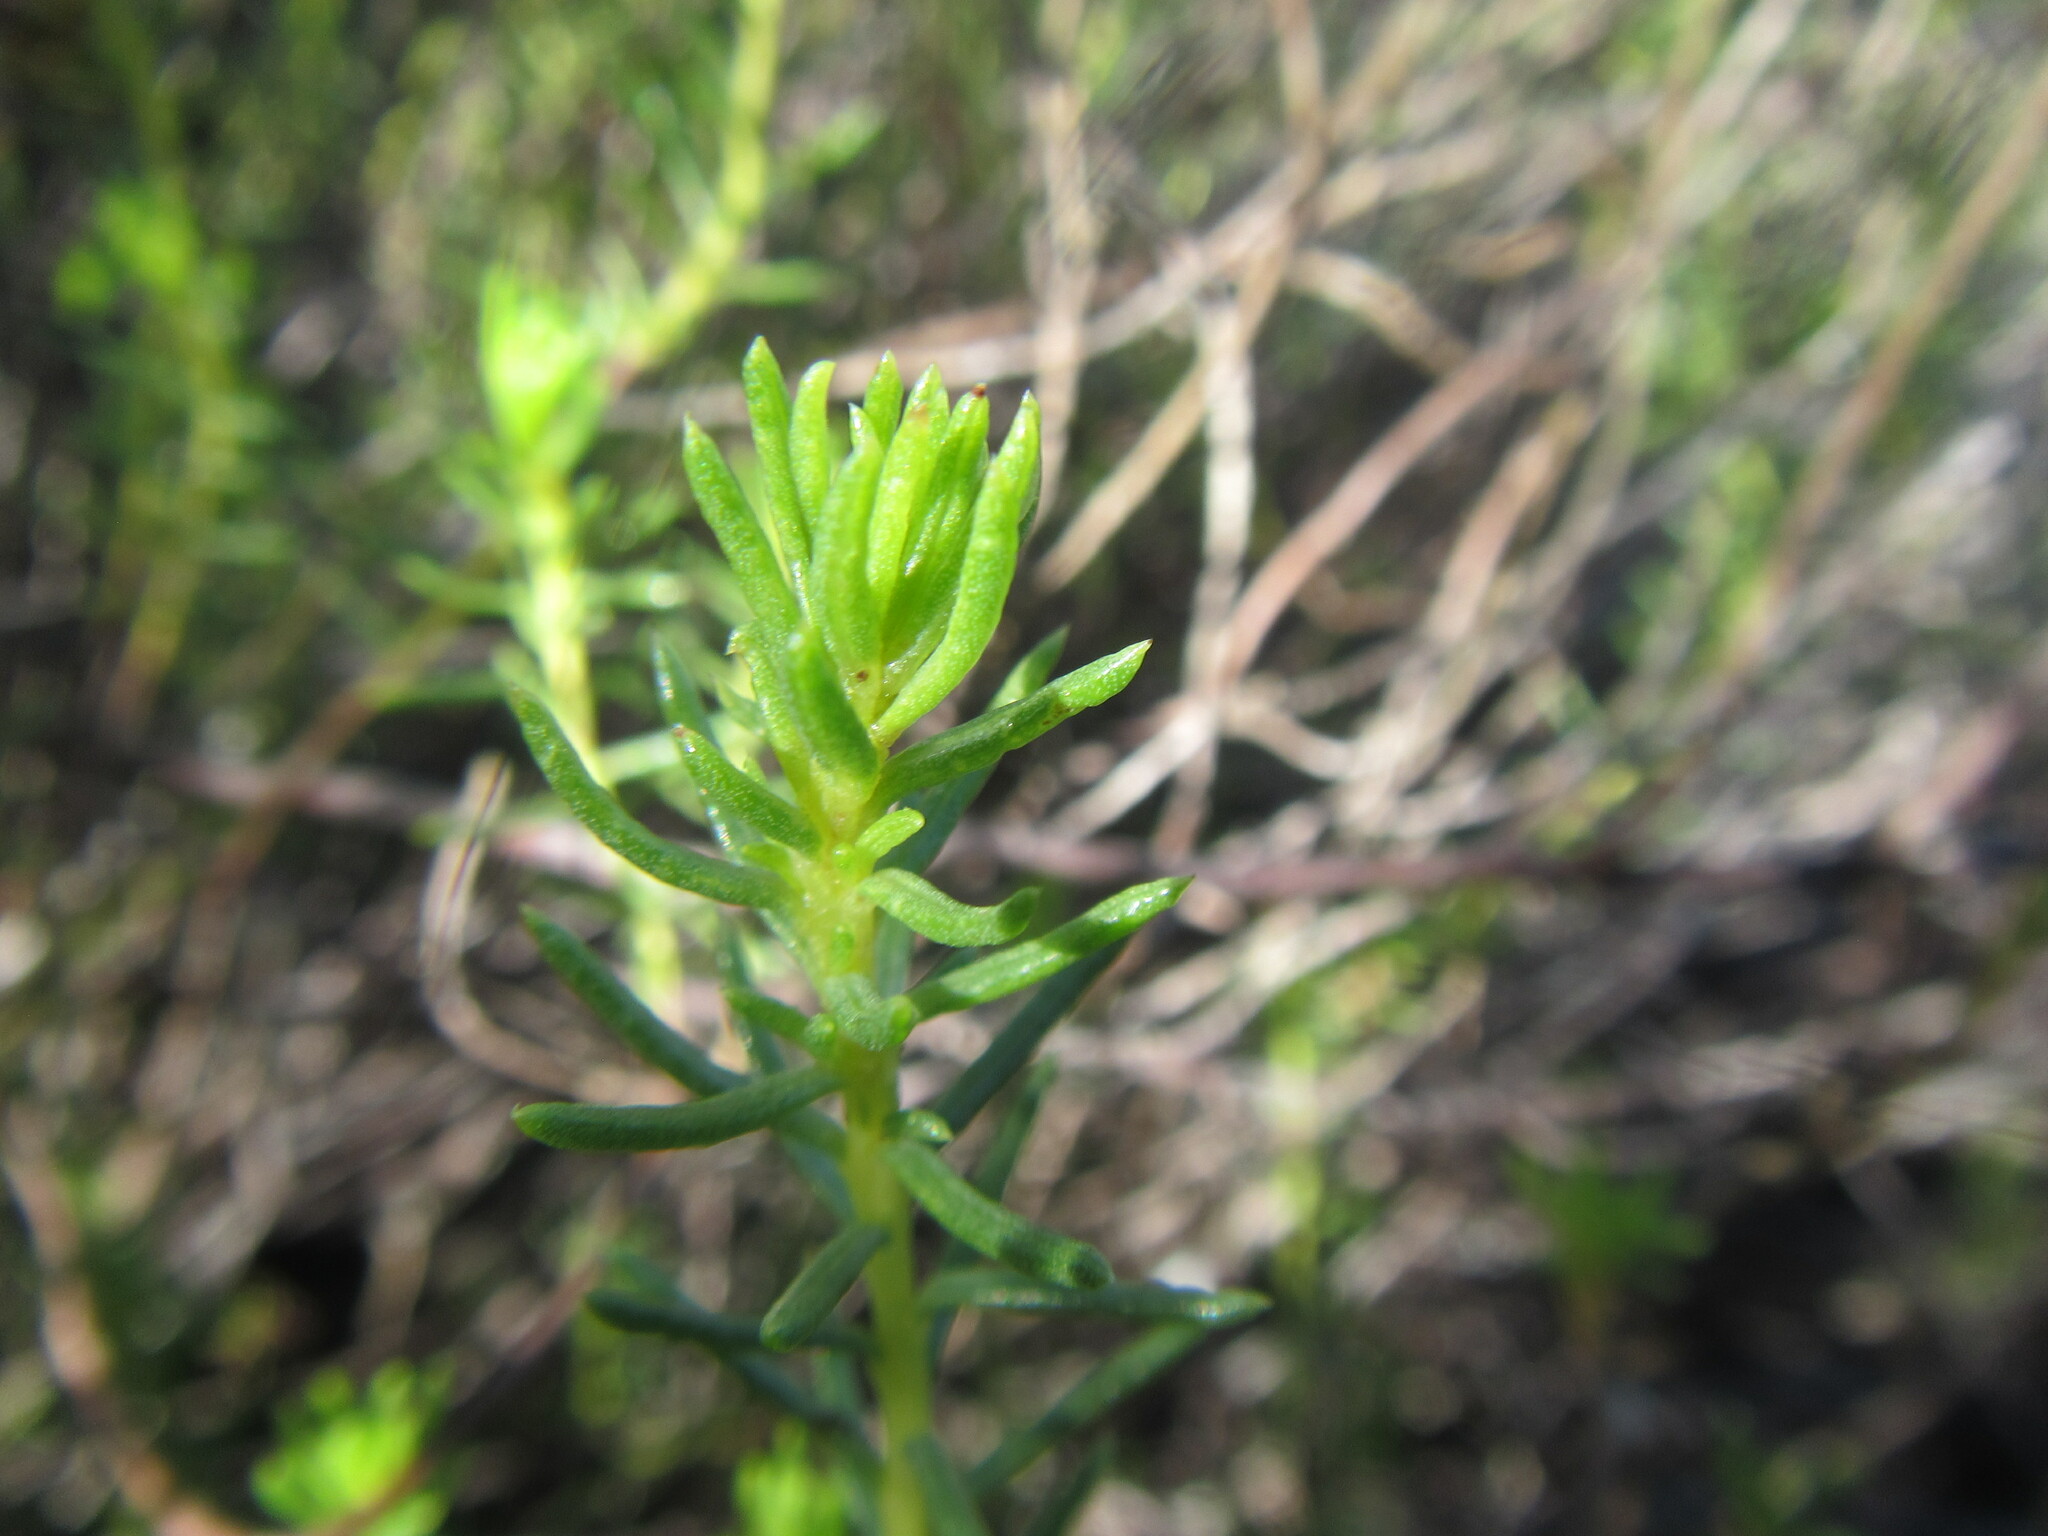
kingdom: Plantae
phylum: Tracheophyta
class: Magnoliopsida
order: Asterales
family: Asteraceae
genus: Pteronia
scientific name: Pteronia teretifolia
